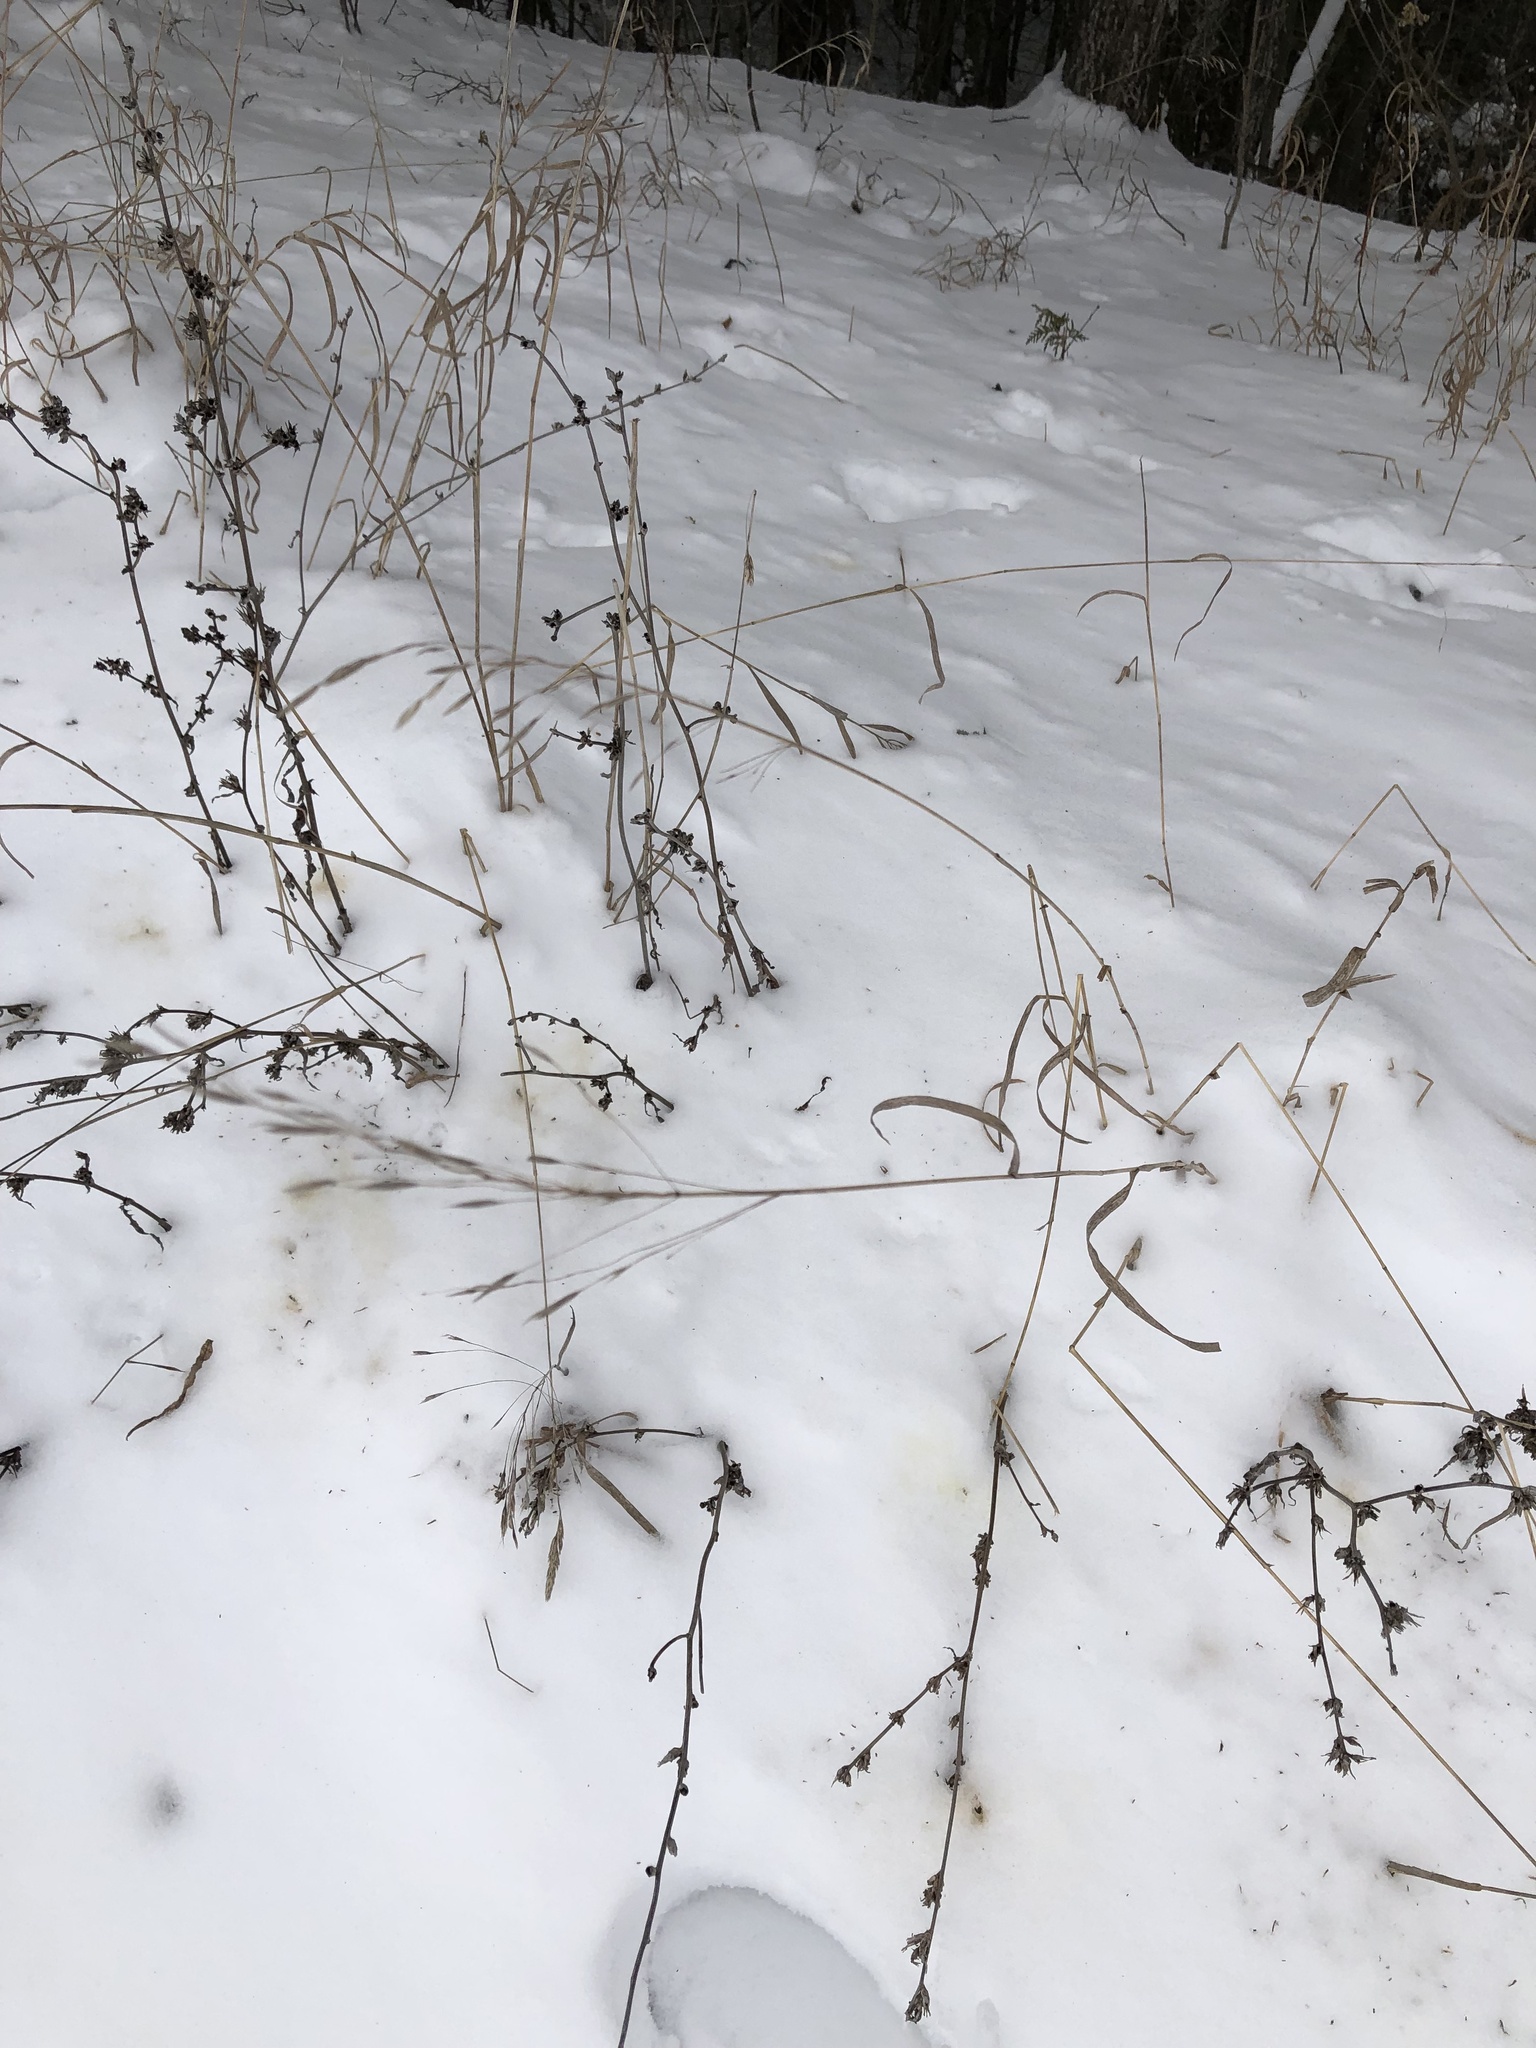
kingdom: Plantae
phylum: Tracheophyta
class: Liliopsida
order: Poales
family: Poaceae
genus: Bromus
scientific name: Bromus inermis
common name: Smooth brome
